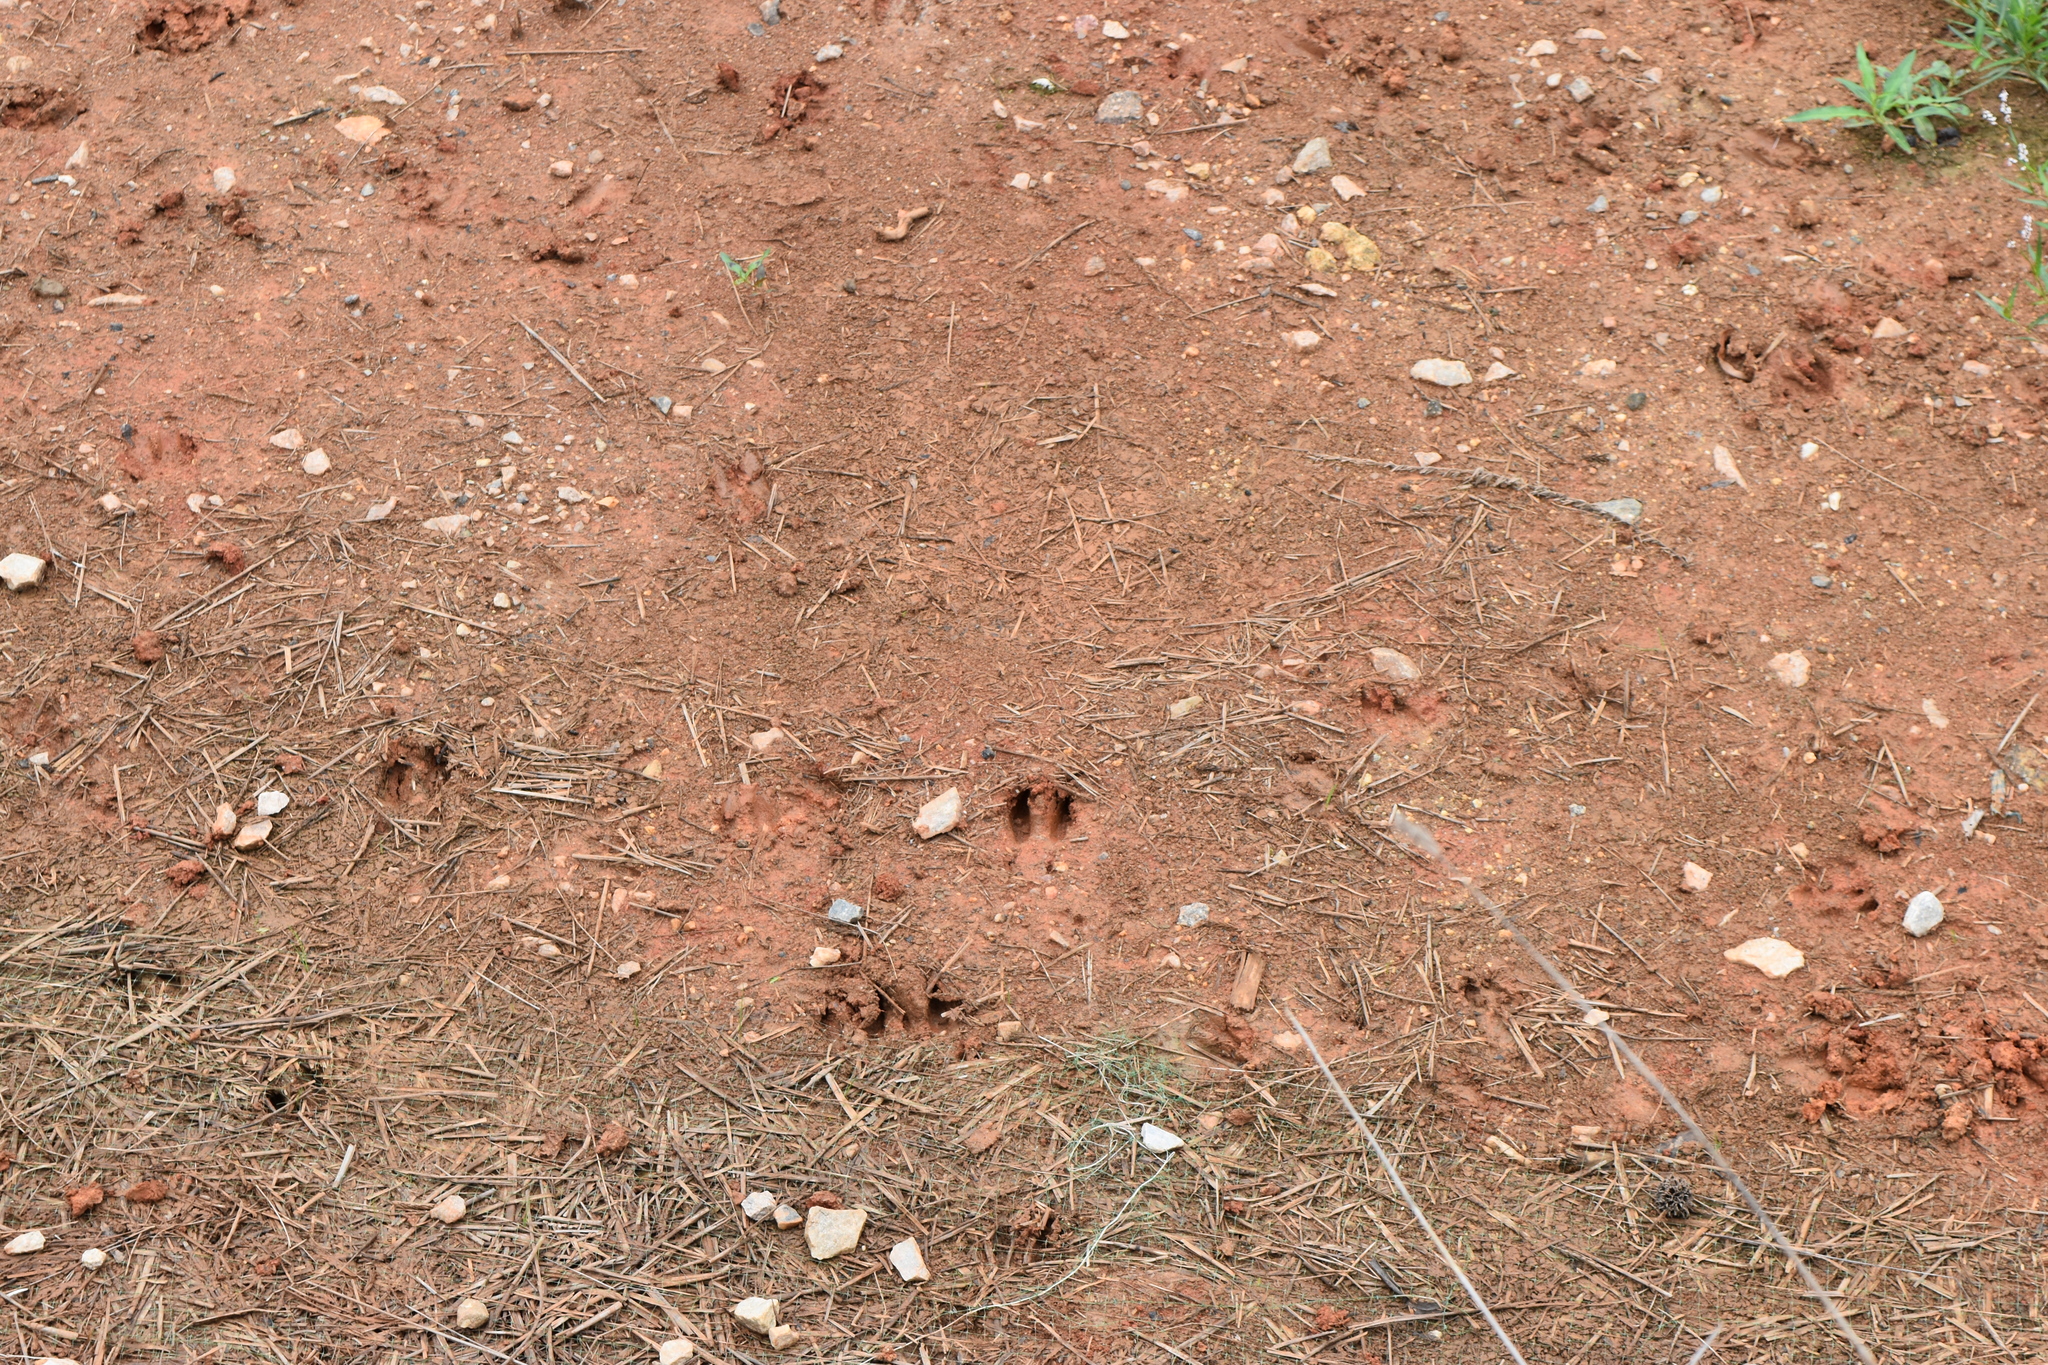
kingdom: Animalia
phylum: Chordata
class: Mammalia
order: Artiodactyla
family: Cervidae
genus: Odocoileus
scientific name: Odocoileus virginianus
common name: White-tailed deer
